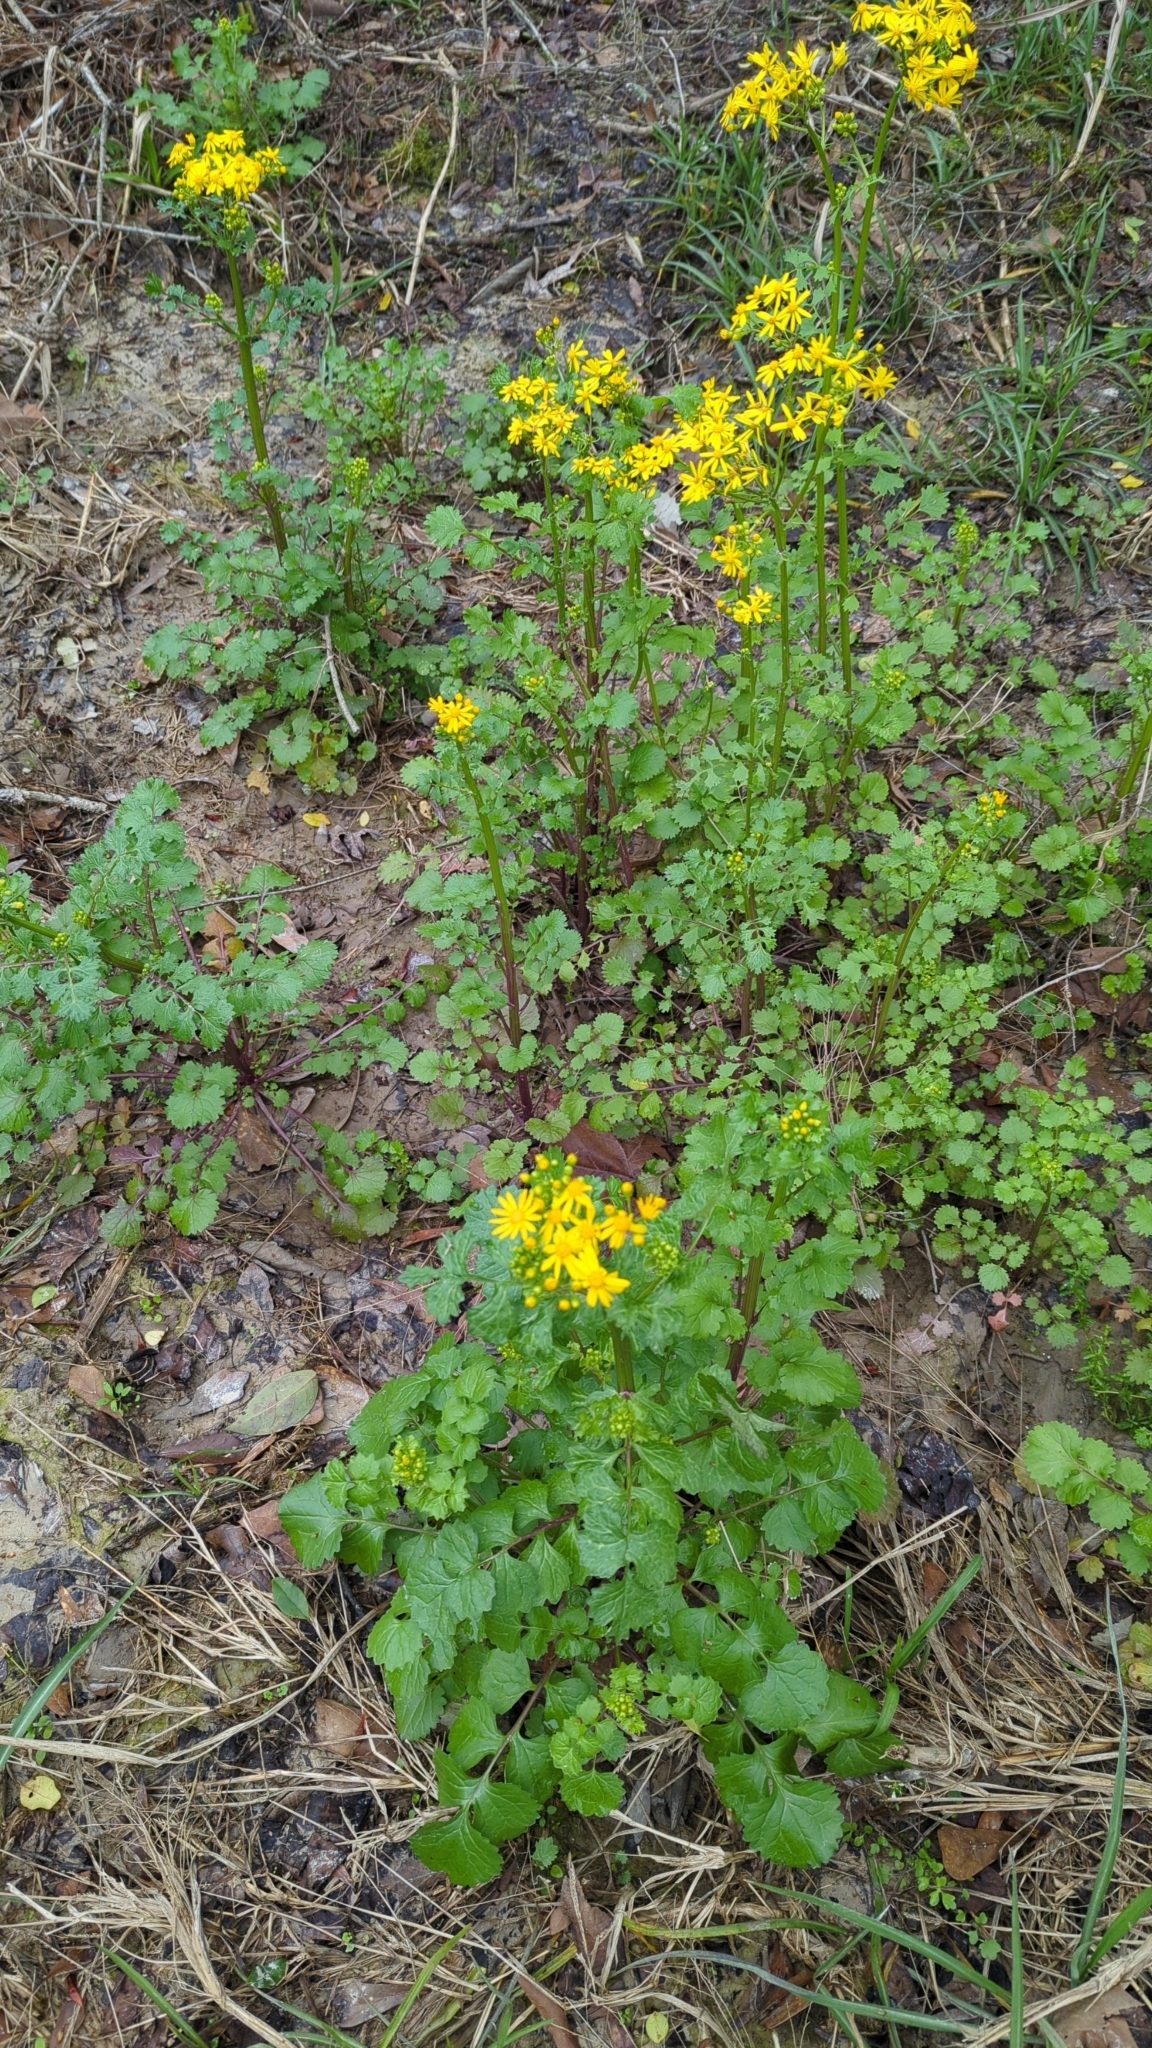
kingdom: Plantae
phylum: Tracheophyta
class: Magnoliopsida
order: Asterales
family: Asteraceae
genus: Packera
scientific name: Packera glabella
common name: Butterweed
